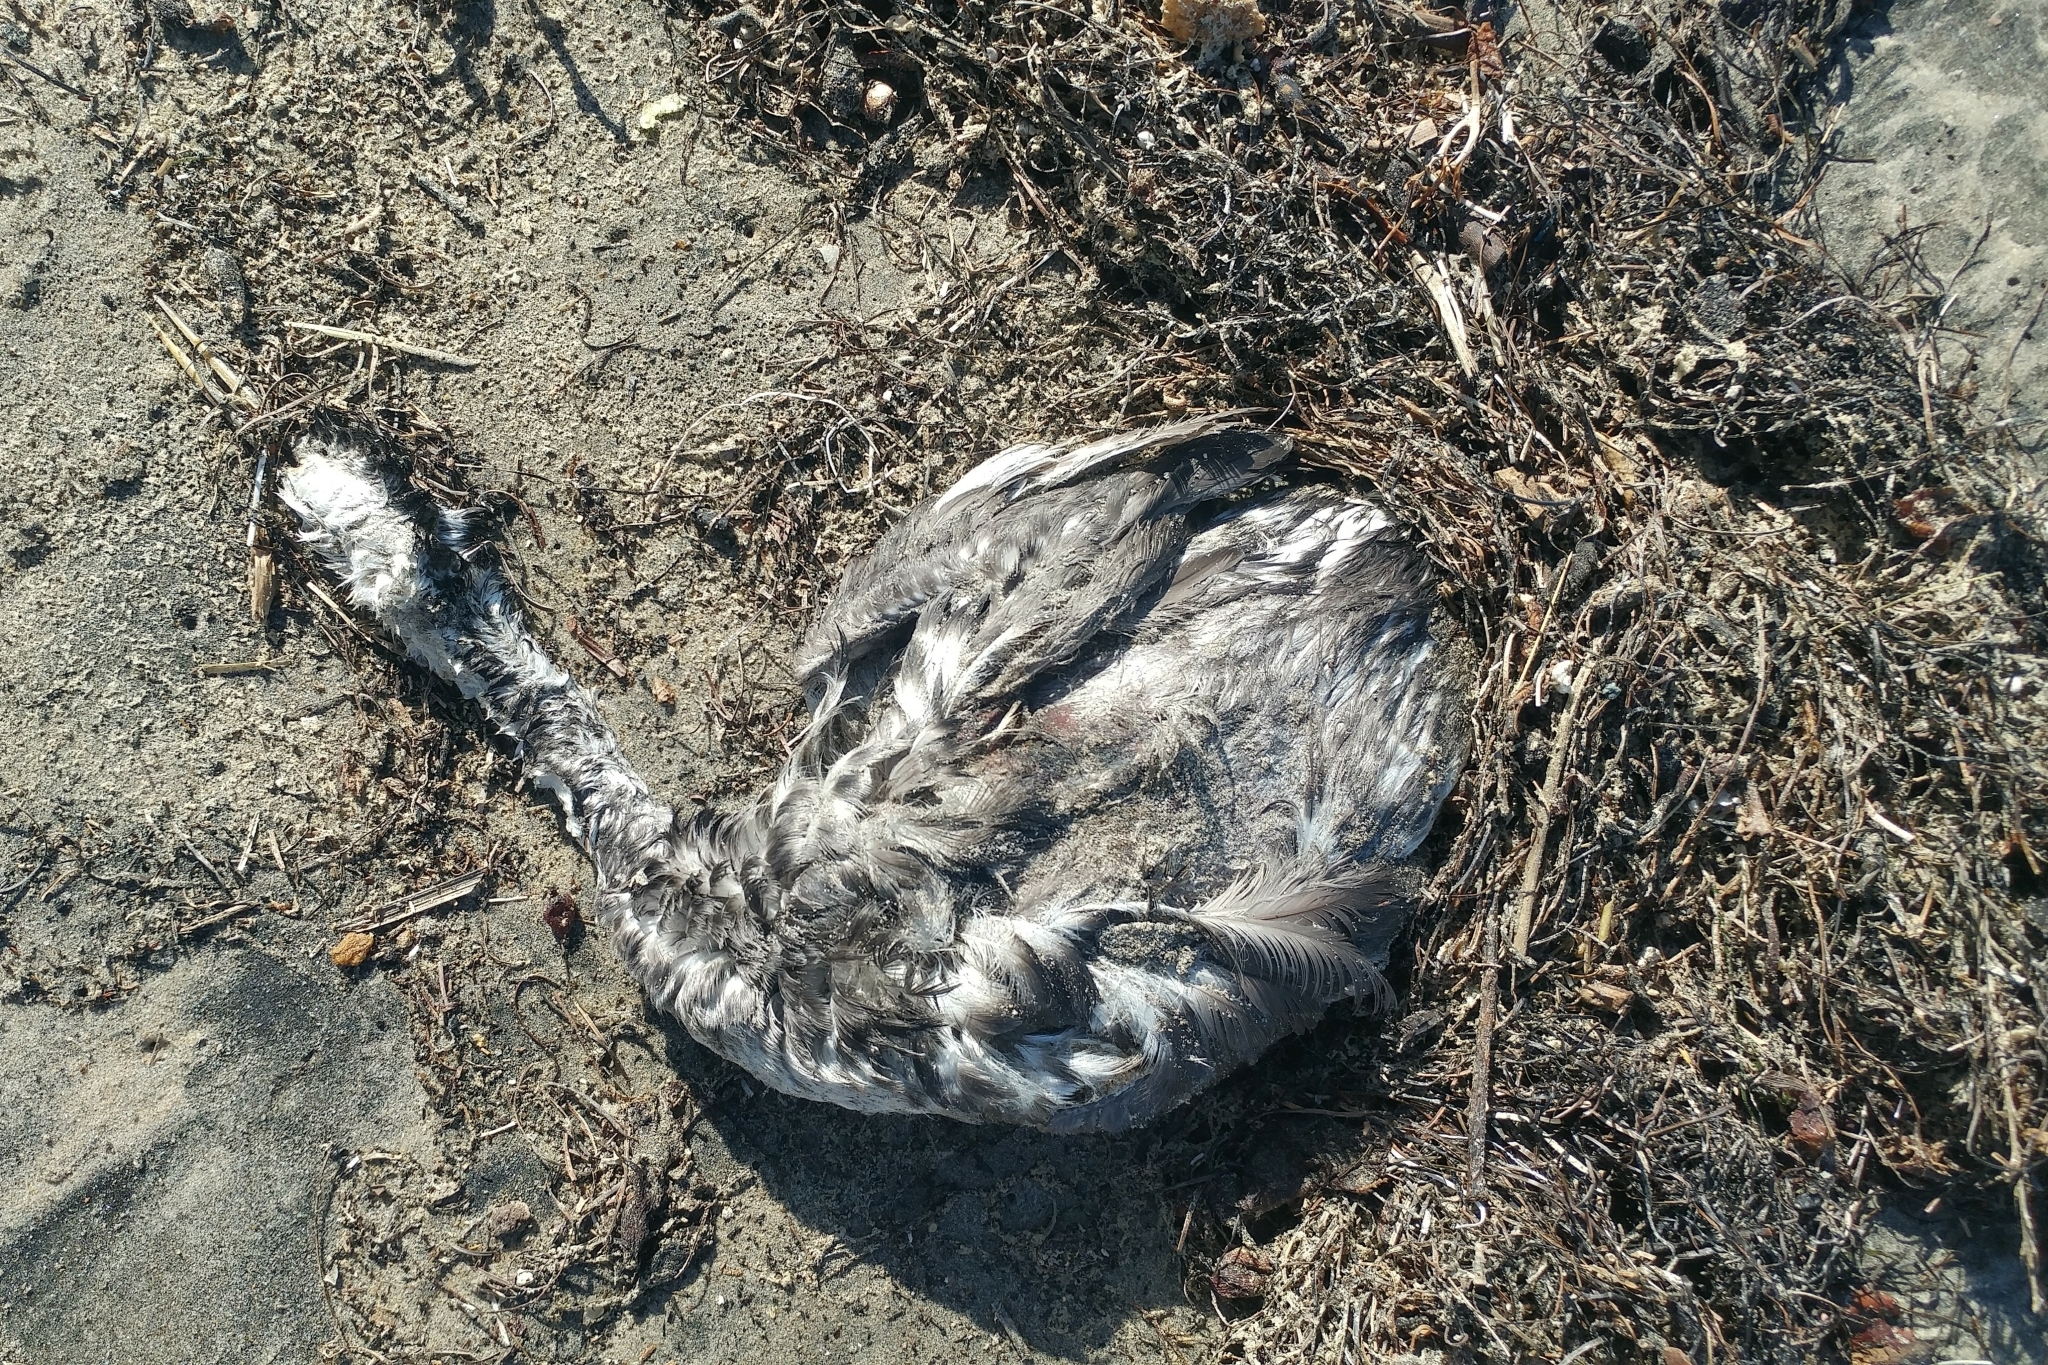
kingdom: Animalia
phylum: Chordata
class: Aves
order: Podicipediformes
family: Podicipedidae
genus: Aechmophorus
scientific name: Aechmophorus occidentalis
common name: Western grebe
